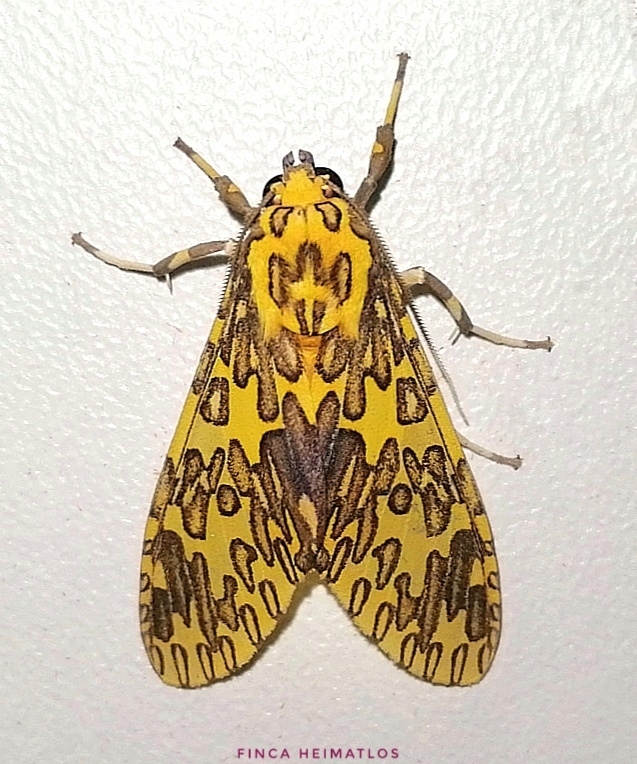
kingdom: Animalia
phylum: Arthropoda
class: Insecta
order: Lepidoptera
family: Erebidae
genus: Amaxia
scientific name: Amaxia pandama
